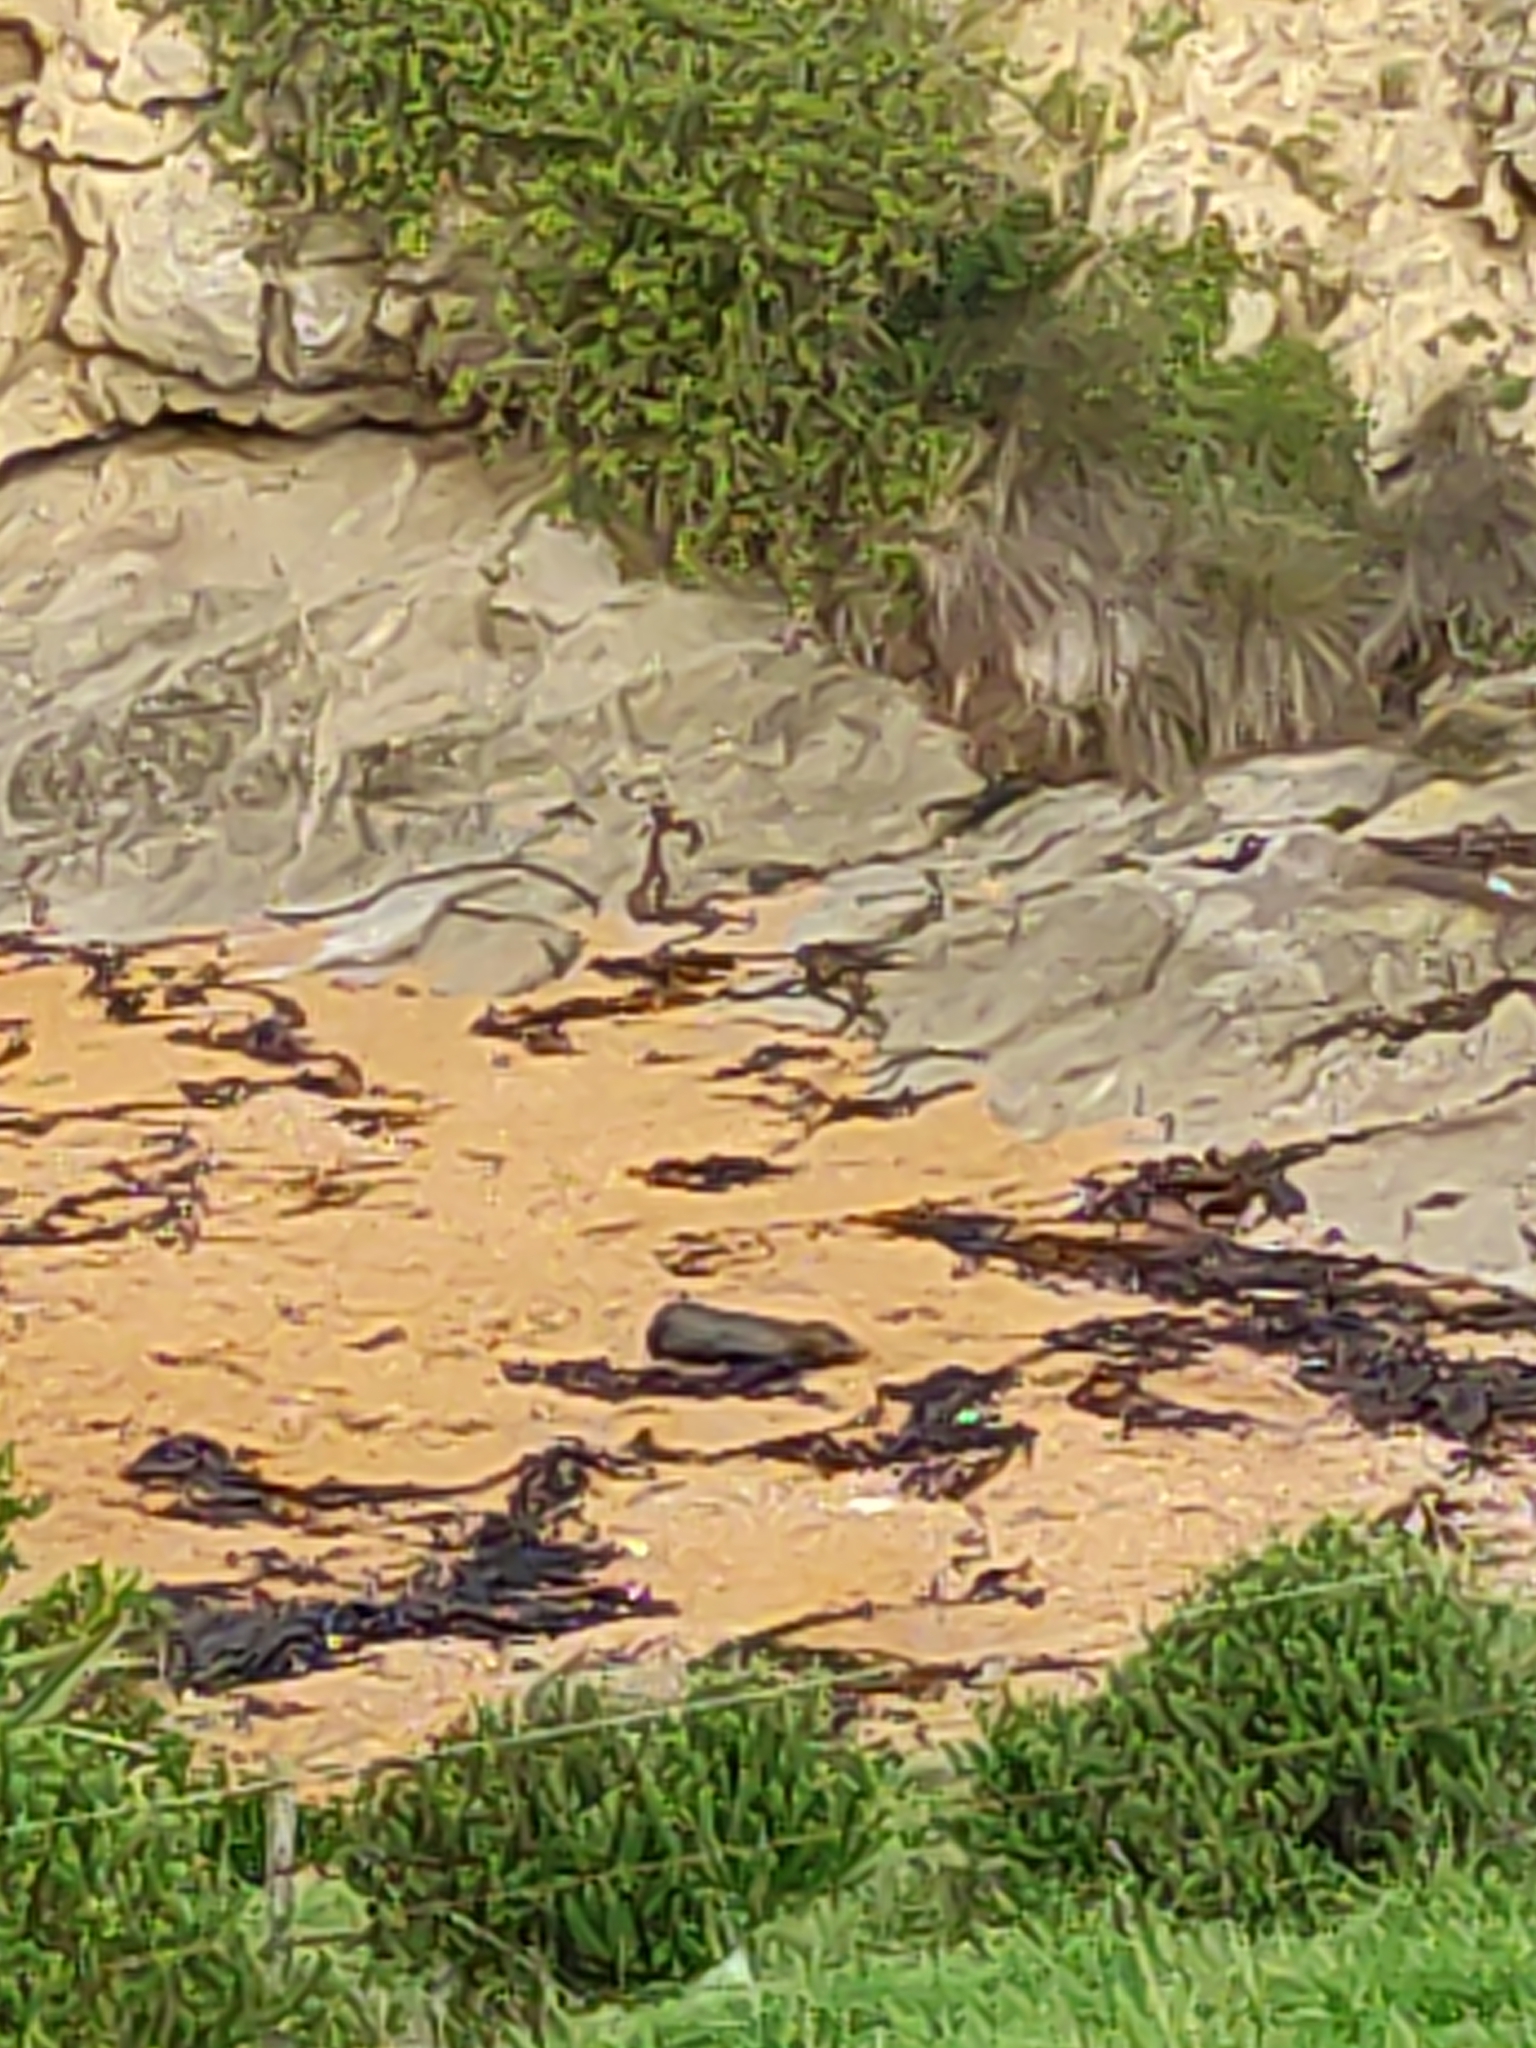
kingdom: Animalia
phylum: Chordata
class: Mammalia
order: Carnivora
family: Otariidae
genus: Arctocephalus
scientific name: Arctocephalus forsteri
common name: New zealand fur seal
